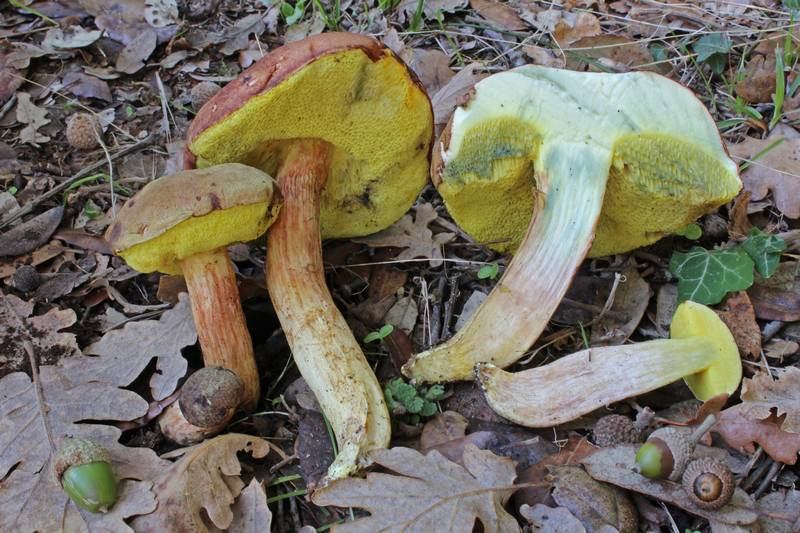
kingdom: Fungi
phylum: Basidiomycota
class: Agaricomycetes
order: Boletales
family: Boletaceae
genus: Xerocomus
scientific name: Xerocomus subtomentosus
